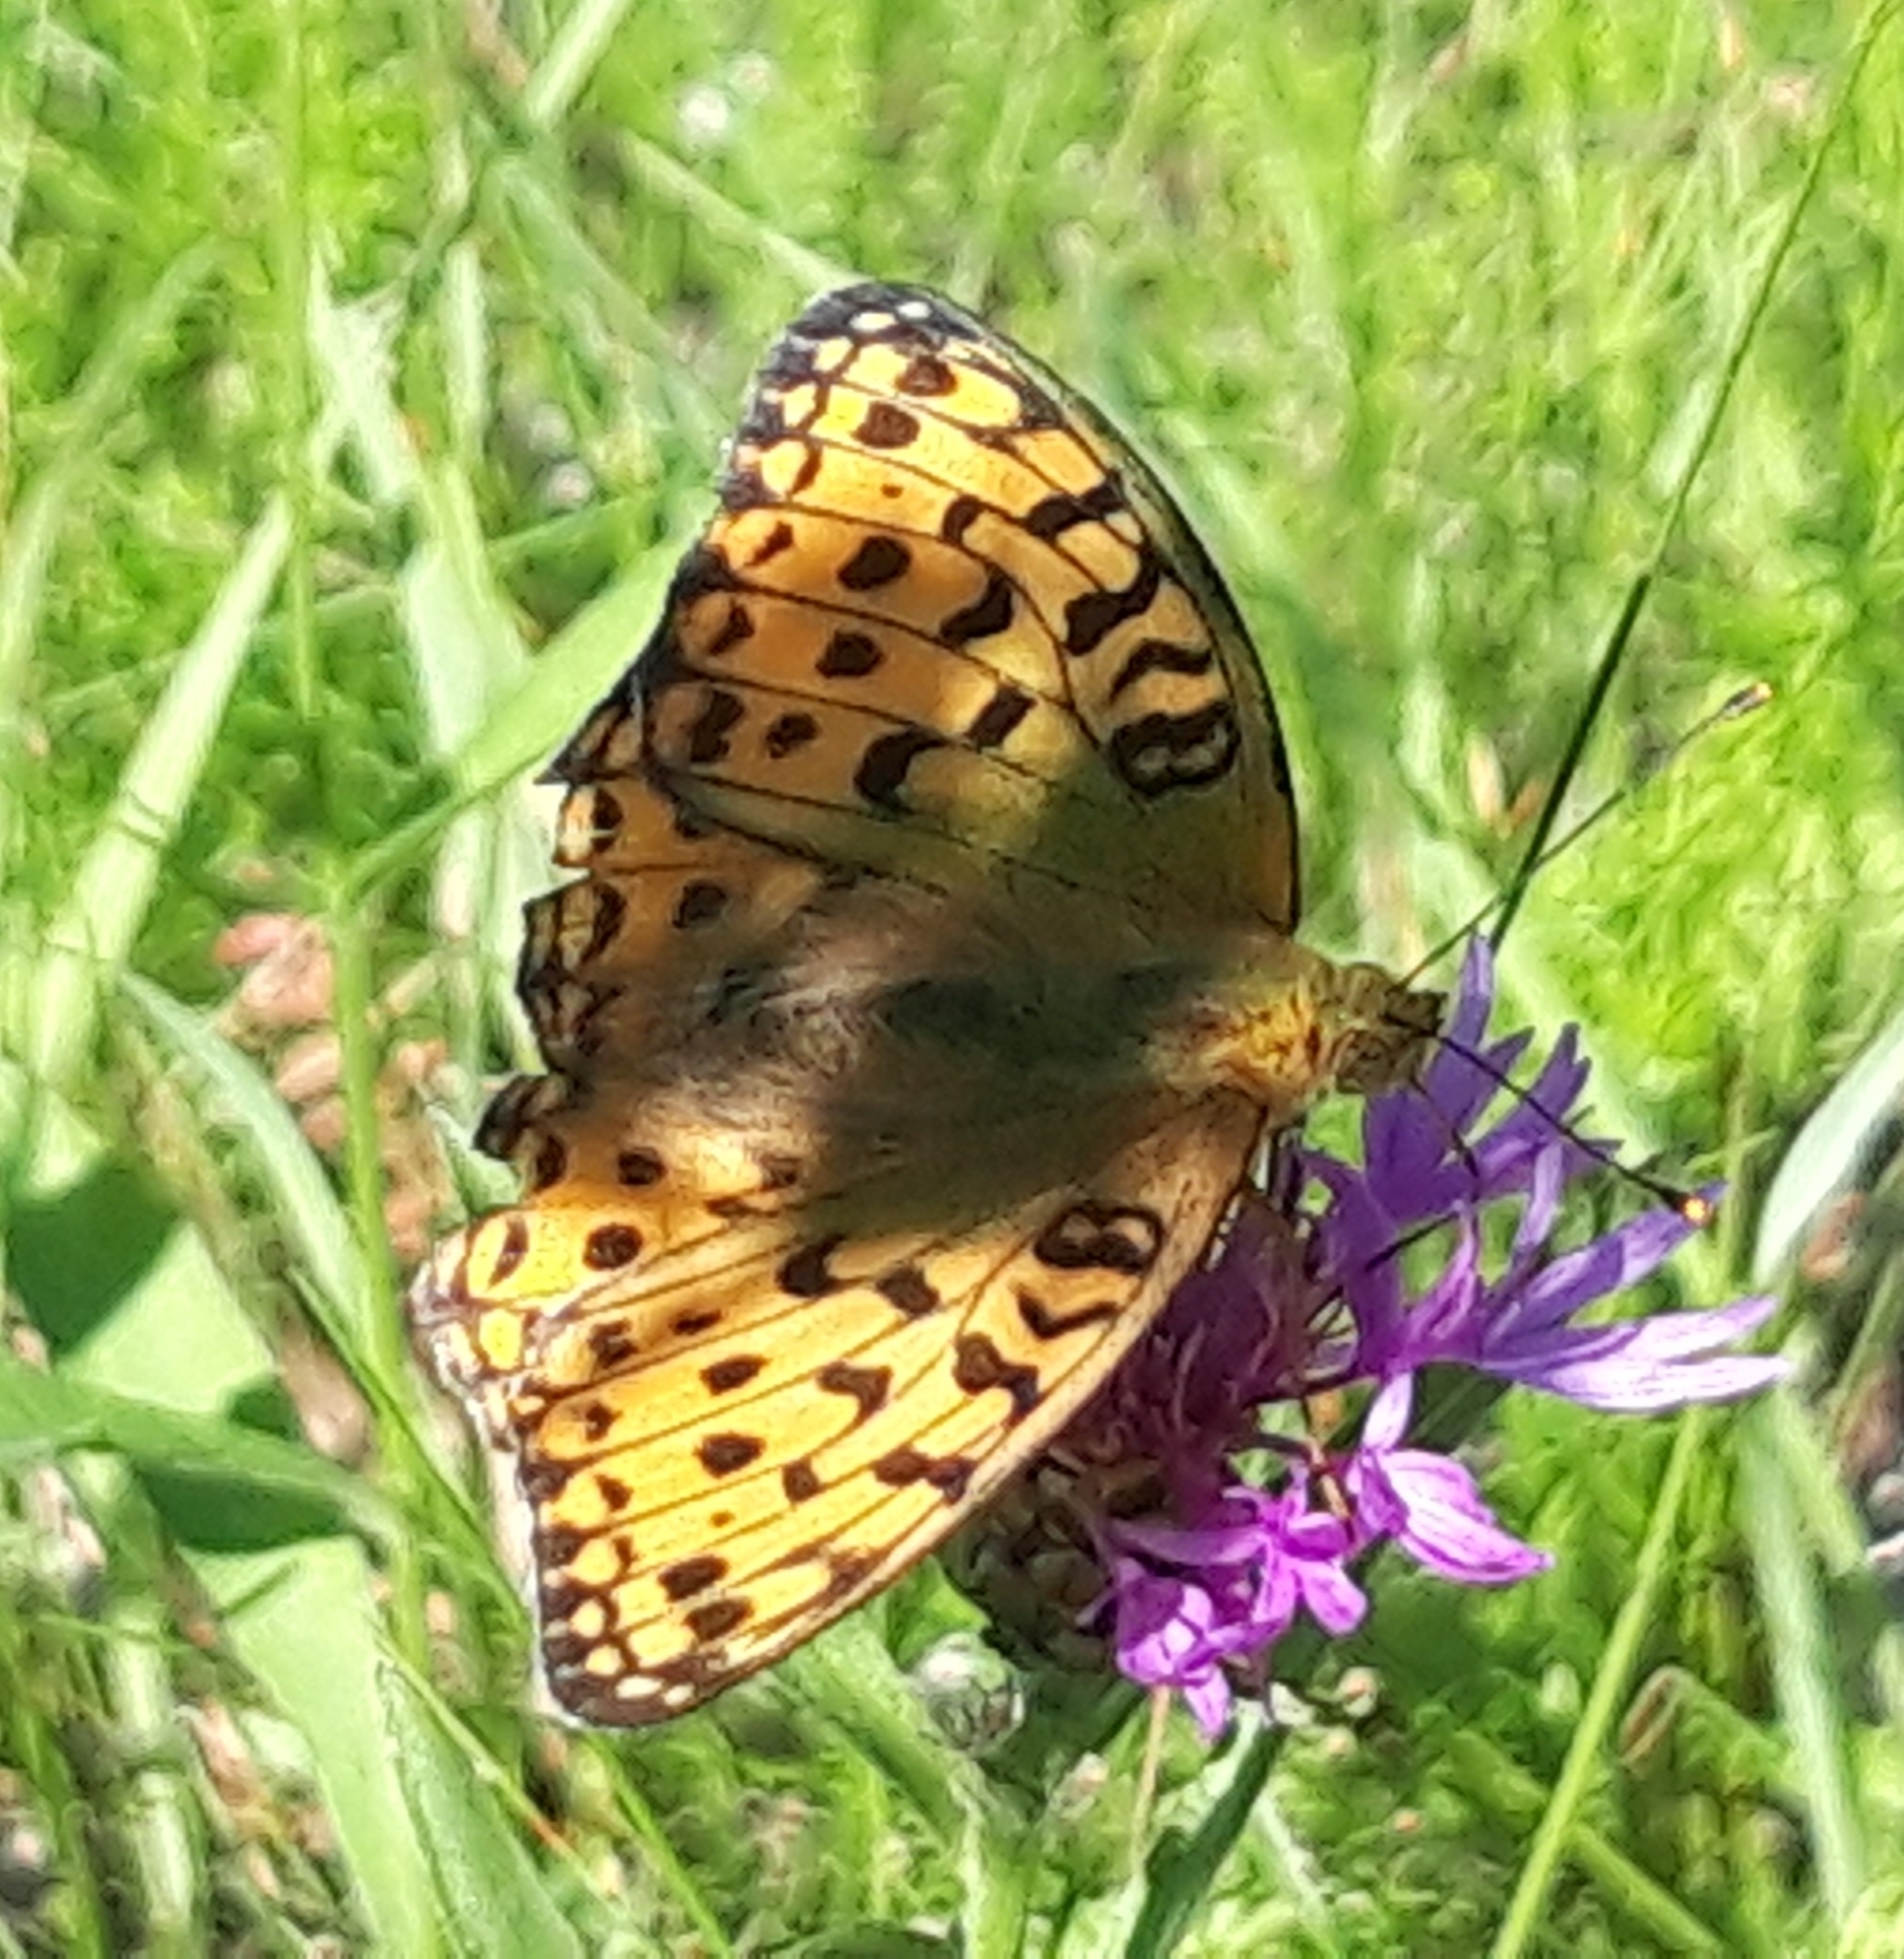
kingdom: Animalia
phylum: Arthropoda
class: Insecta
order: Lepidoptera
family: Nymphalidae
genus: Fabriciana
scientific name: Fabriciana adippe
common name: High brown fritillary
